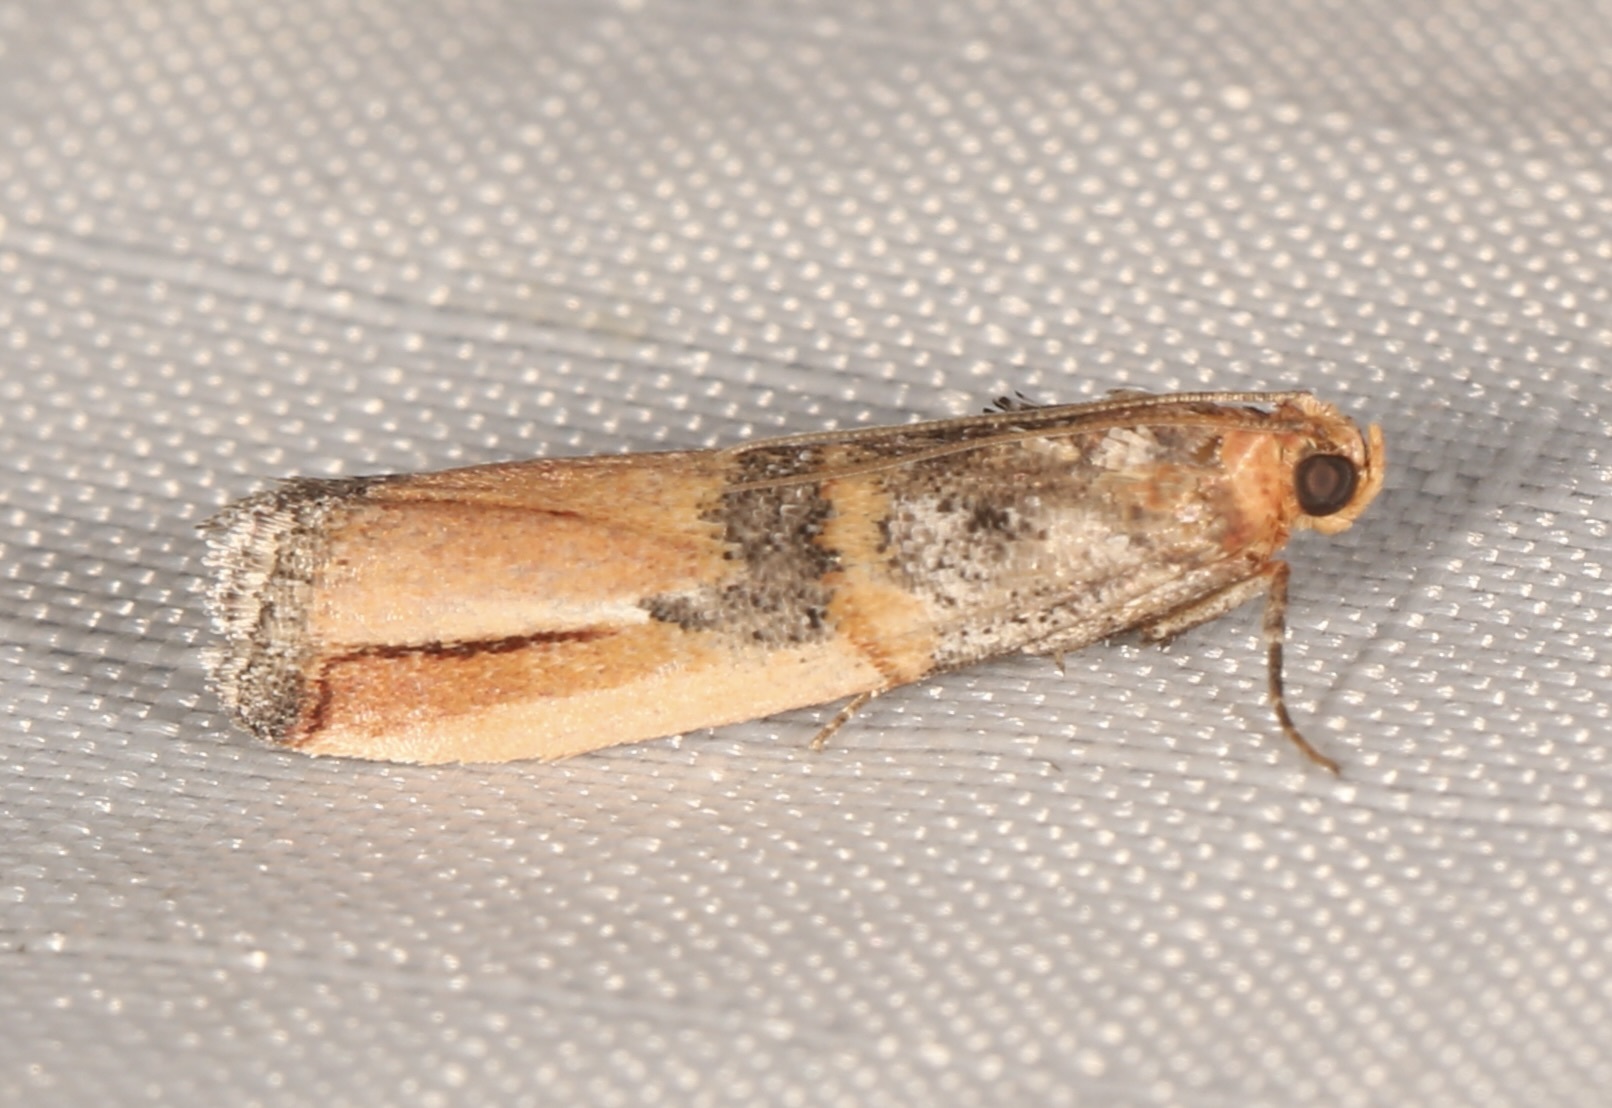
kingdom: Animalia
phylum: Arthropoda
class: Insecta
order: Lepidoptera
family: Pyralidae
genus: Dasypyga
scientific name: Dasypyga alternosquamella
